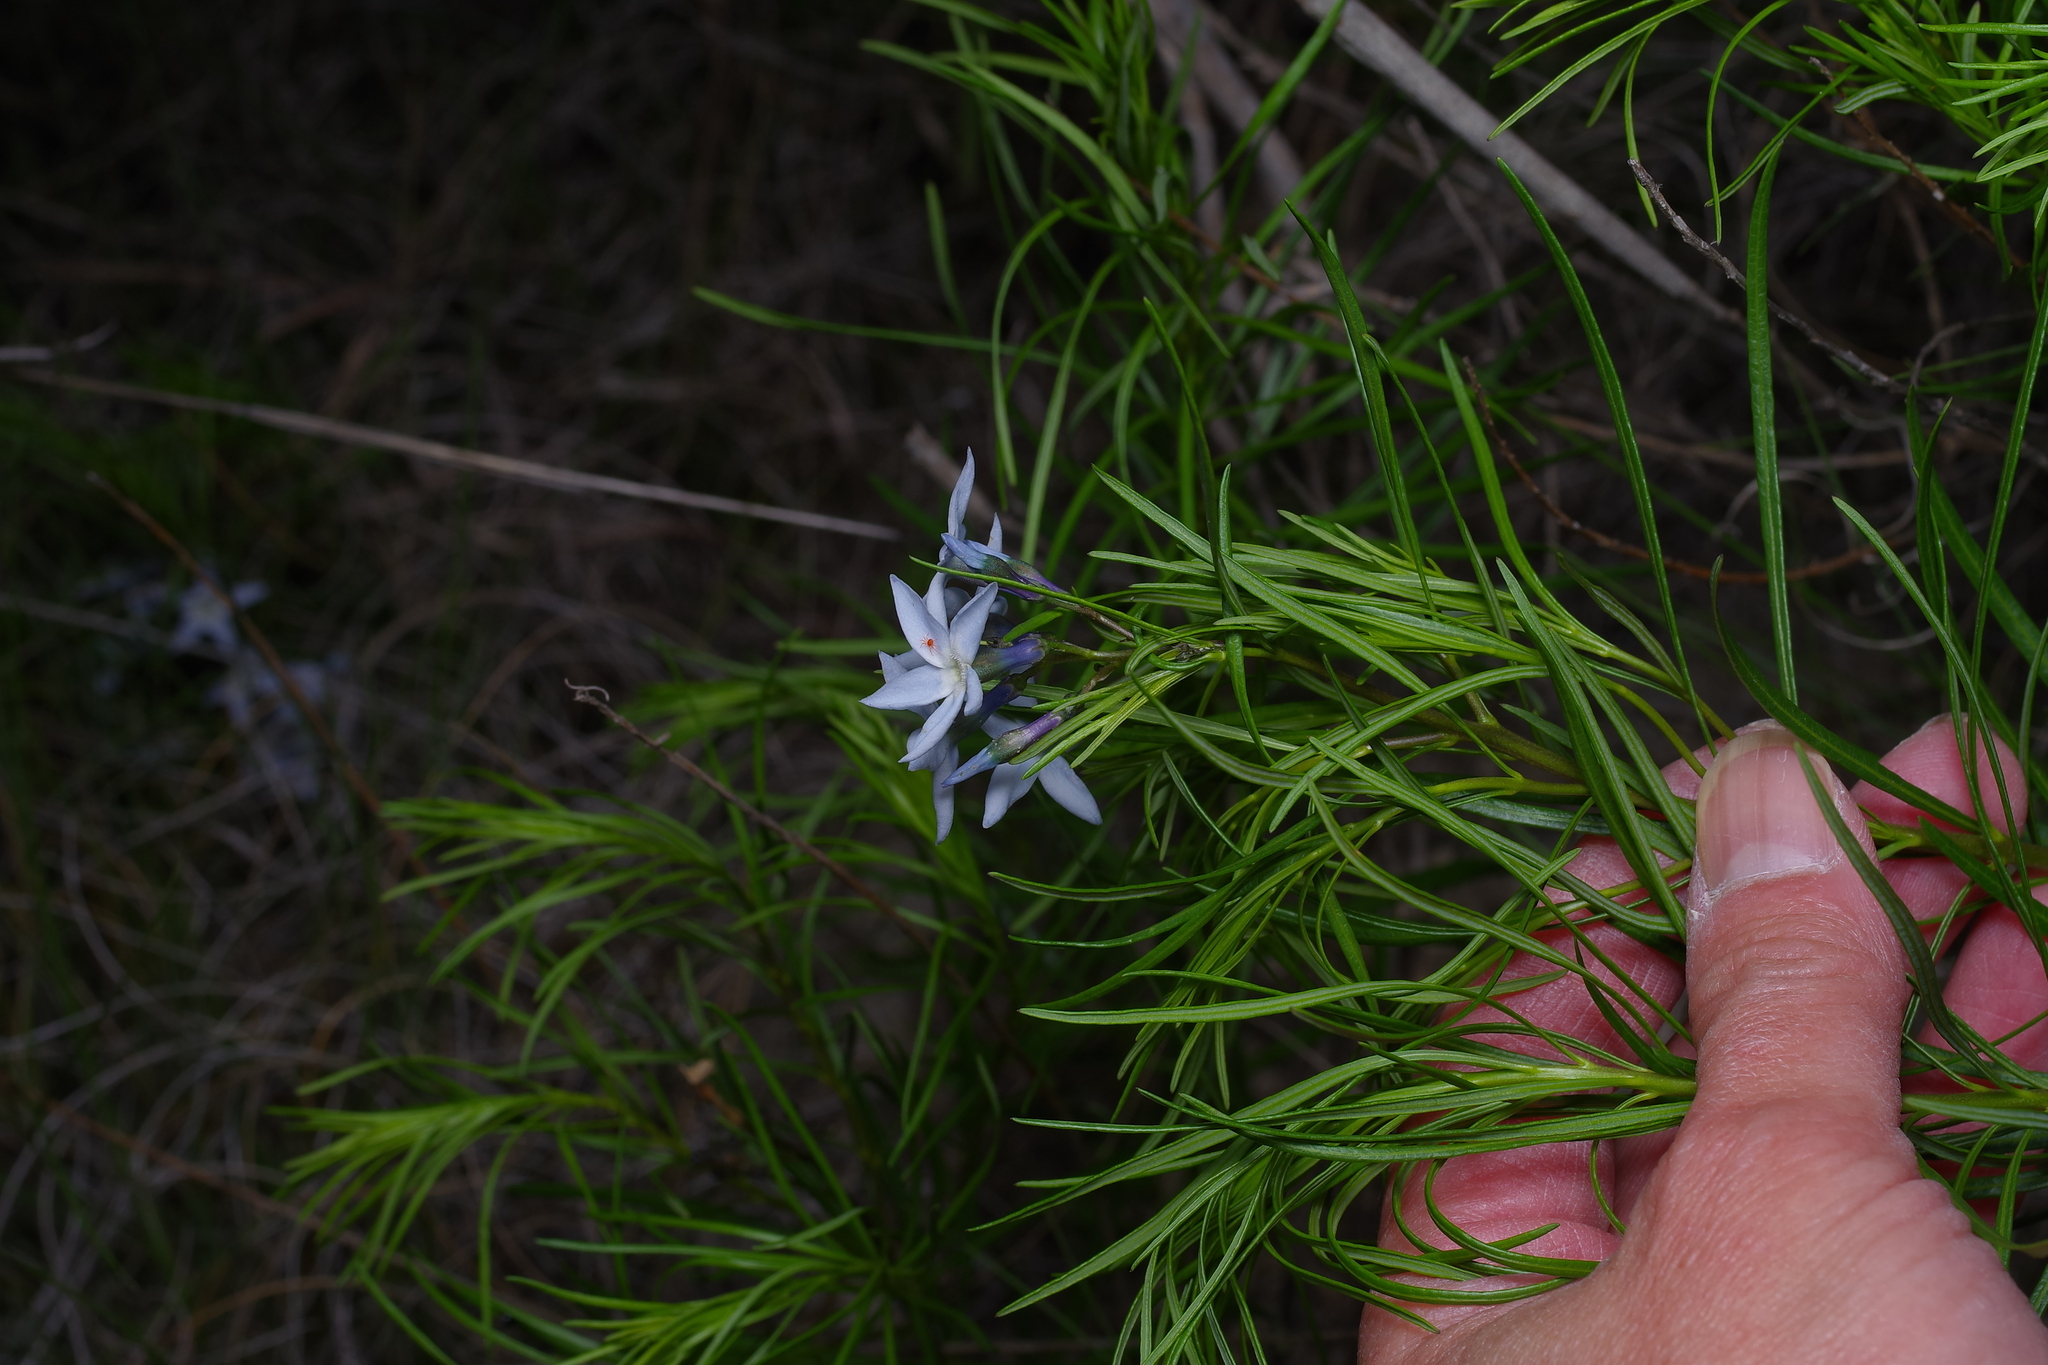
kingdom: Plantae
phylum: Tracheophyta
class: Magnoliopsida
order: Gentianales
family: Apocynaceae
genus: Amsonia
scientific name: Amsonia ciliata
